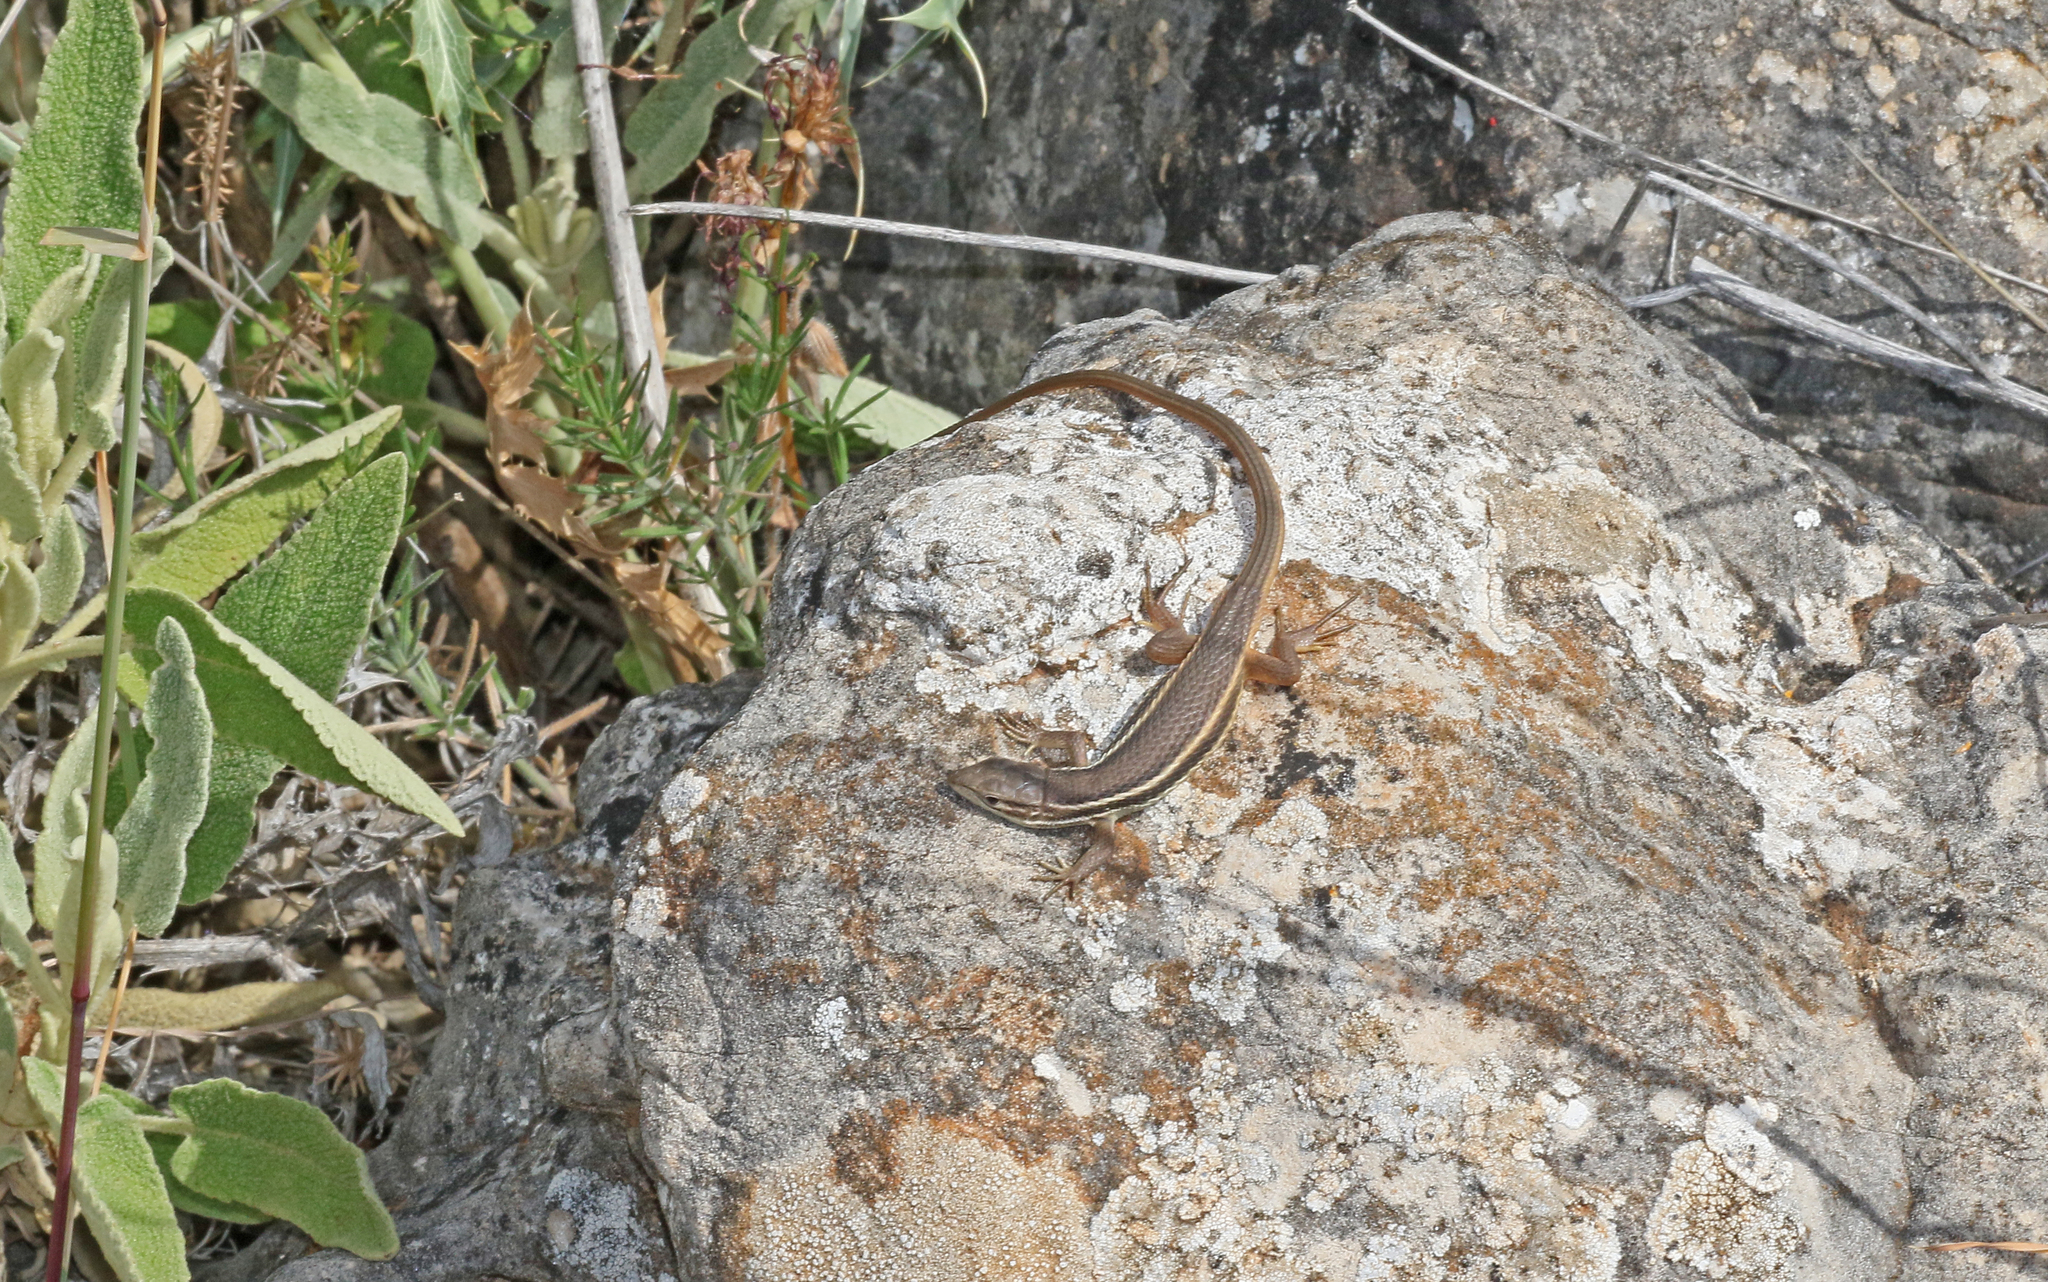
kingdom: Animalia
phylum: Chordata
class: Squamata
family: Lacertidae
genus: Psammodromus
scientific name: Psammodromus algirus
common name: Algerian psammodromus
